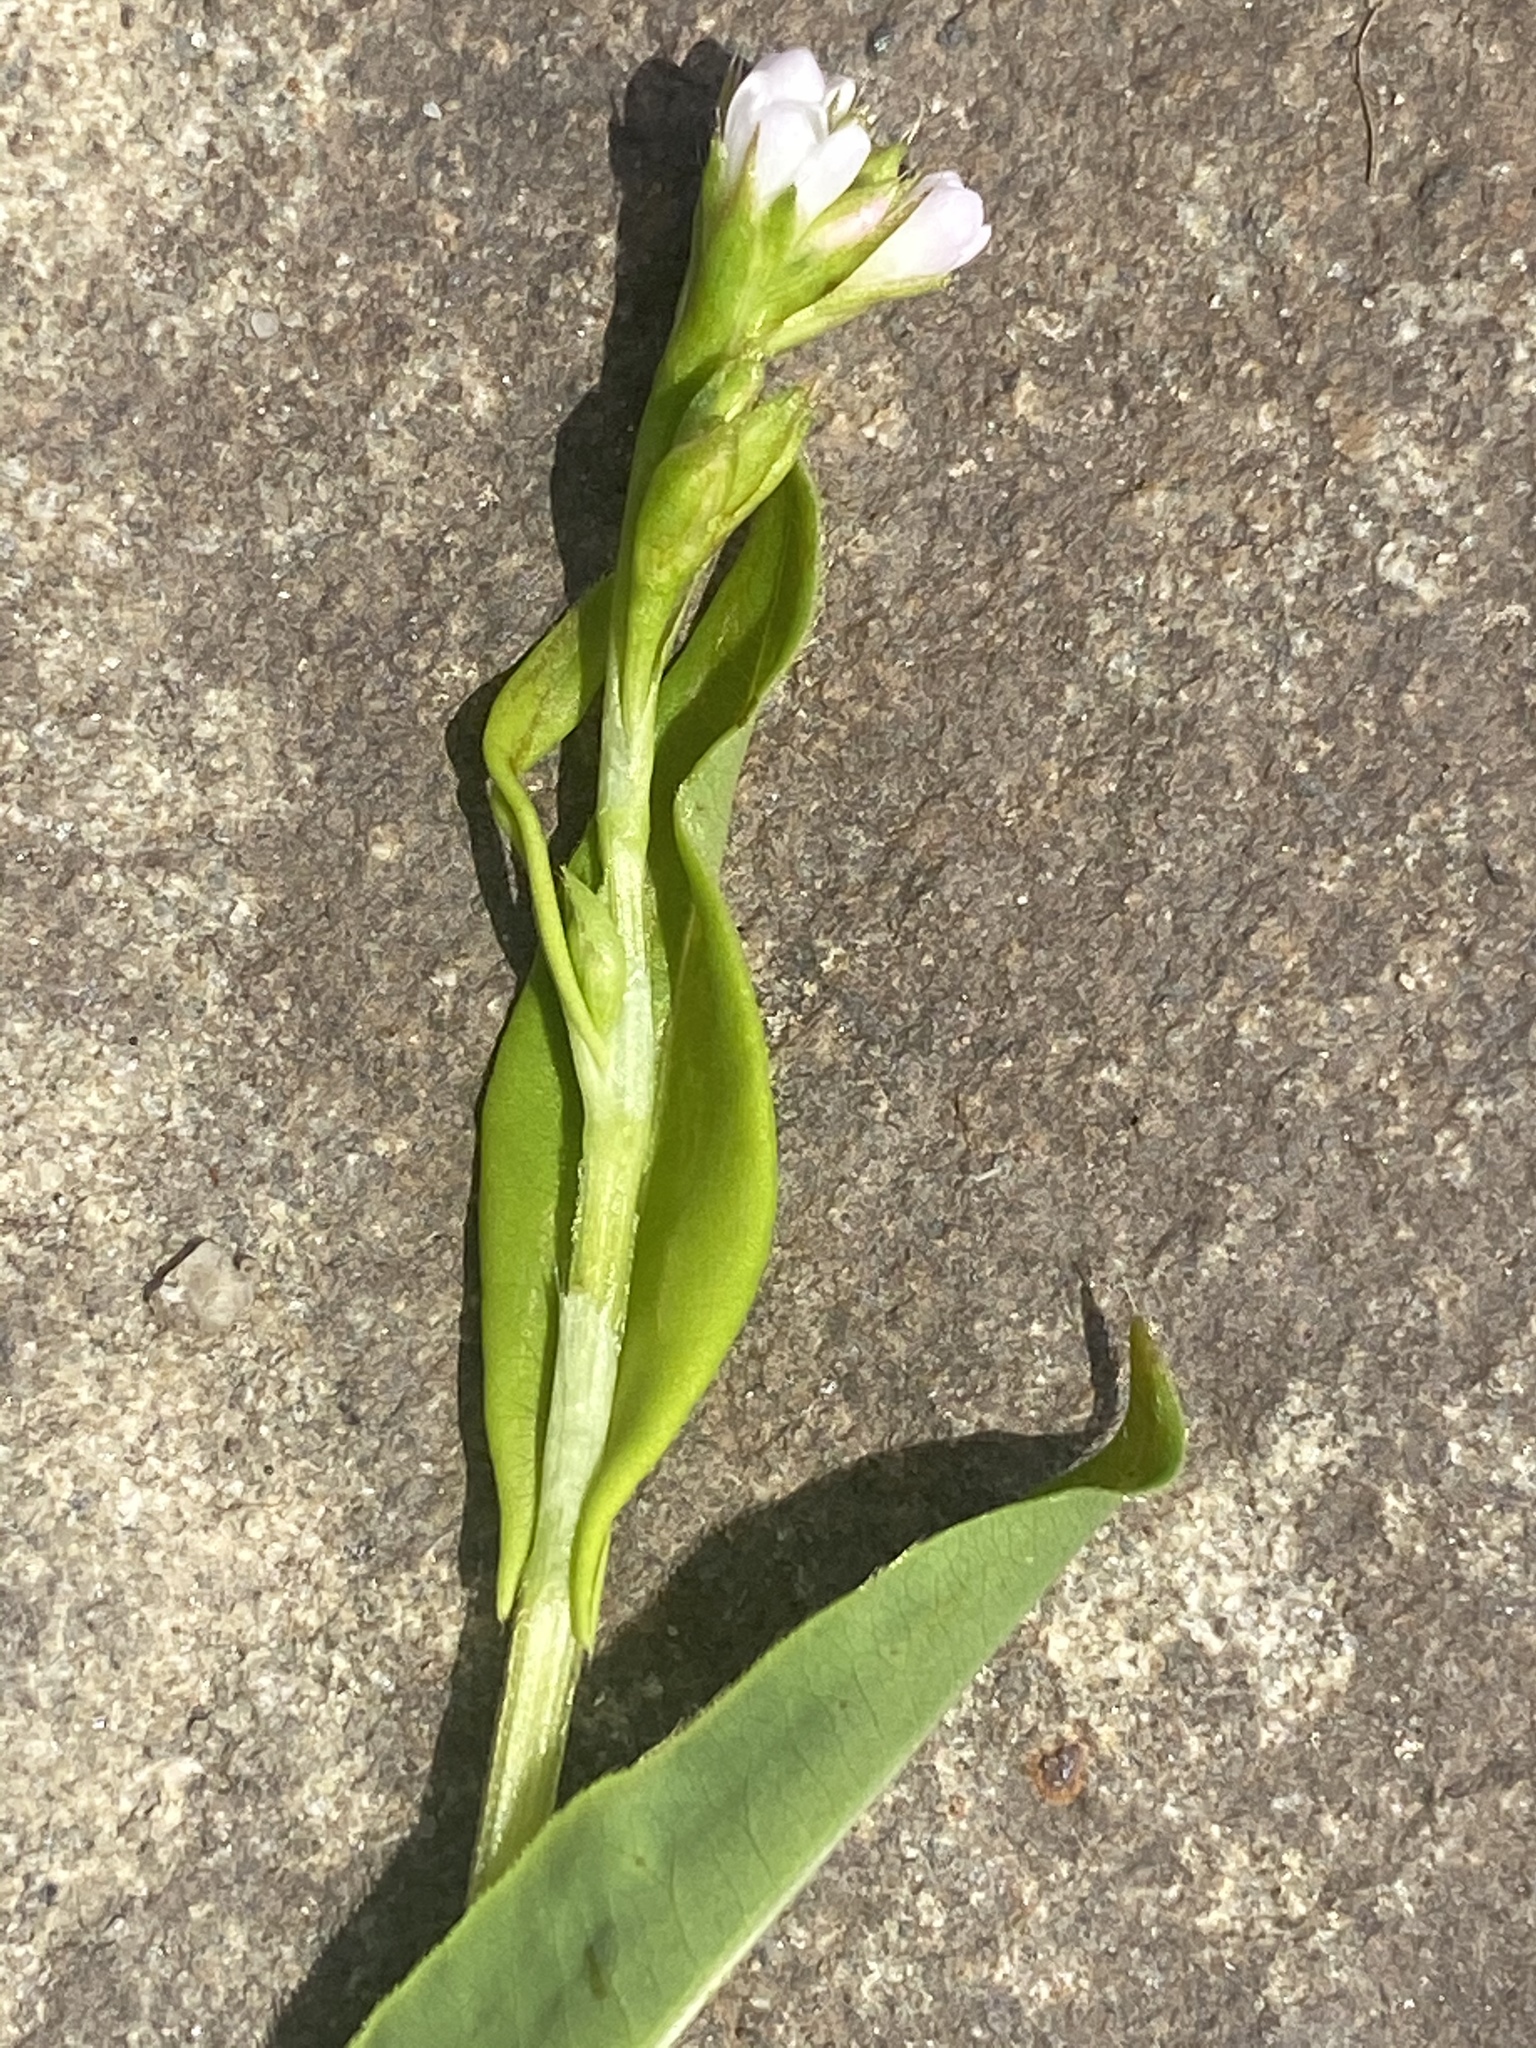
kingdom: Plantae
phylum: Tracheophyta
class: Magnoliopsida
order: Caryophyllales
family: Polygonaceae
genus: Persicaria
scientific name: Persicaria sagittata
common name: American tearthumb
